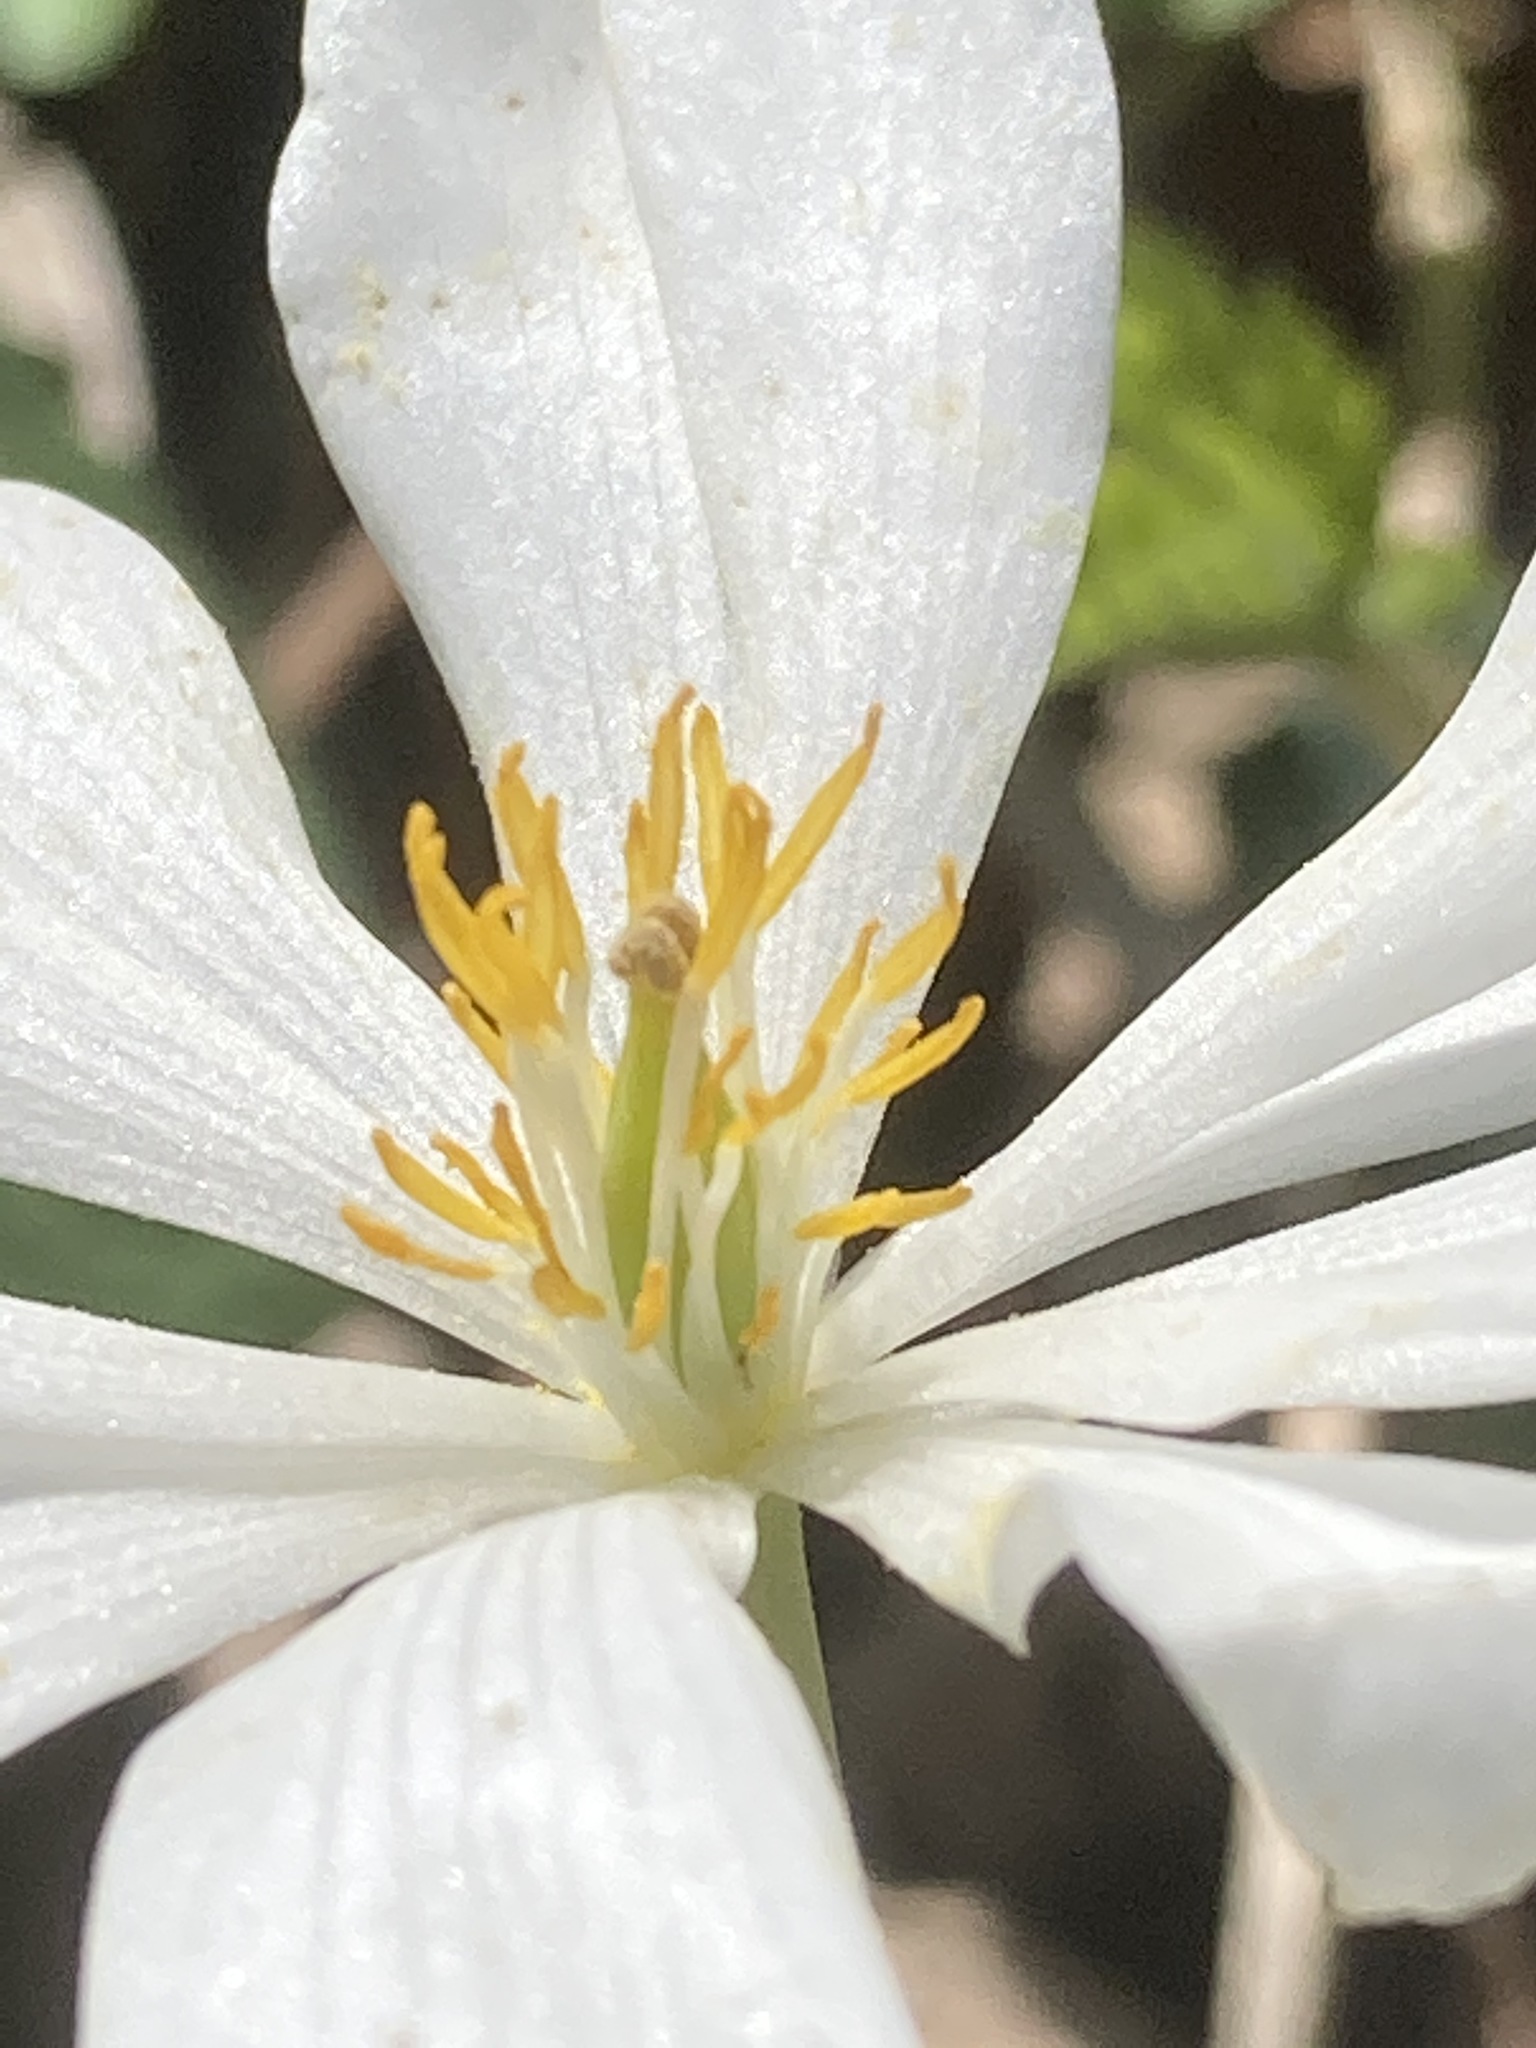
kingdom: Plantae
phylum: Tracheophyta
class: Magnoliopsida
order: Ranunculales
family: Papaveraceae
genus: Sanguinaria
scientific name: Sanguinaria canadensis
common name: Bloodroot
